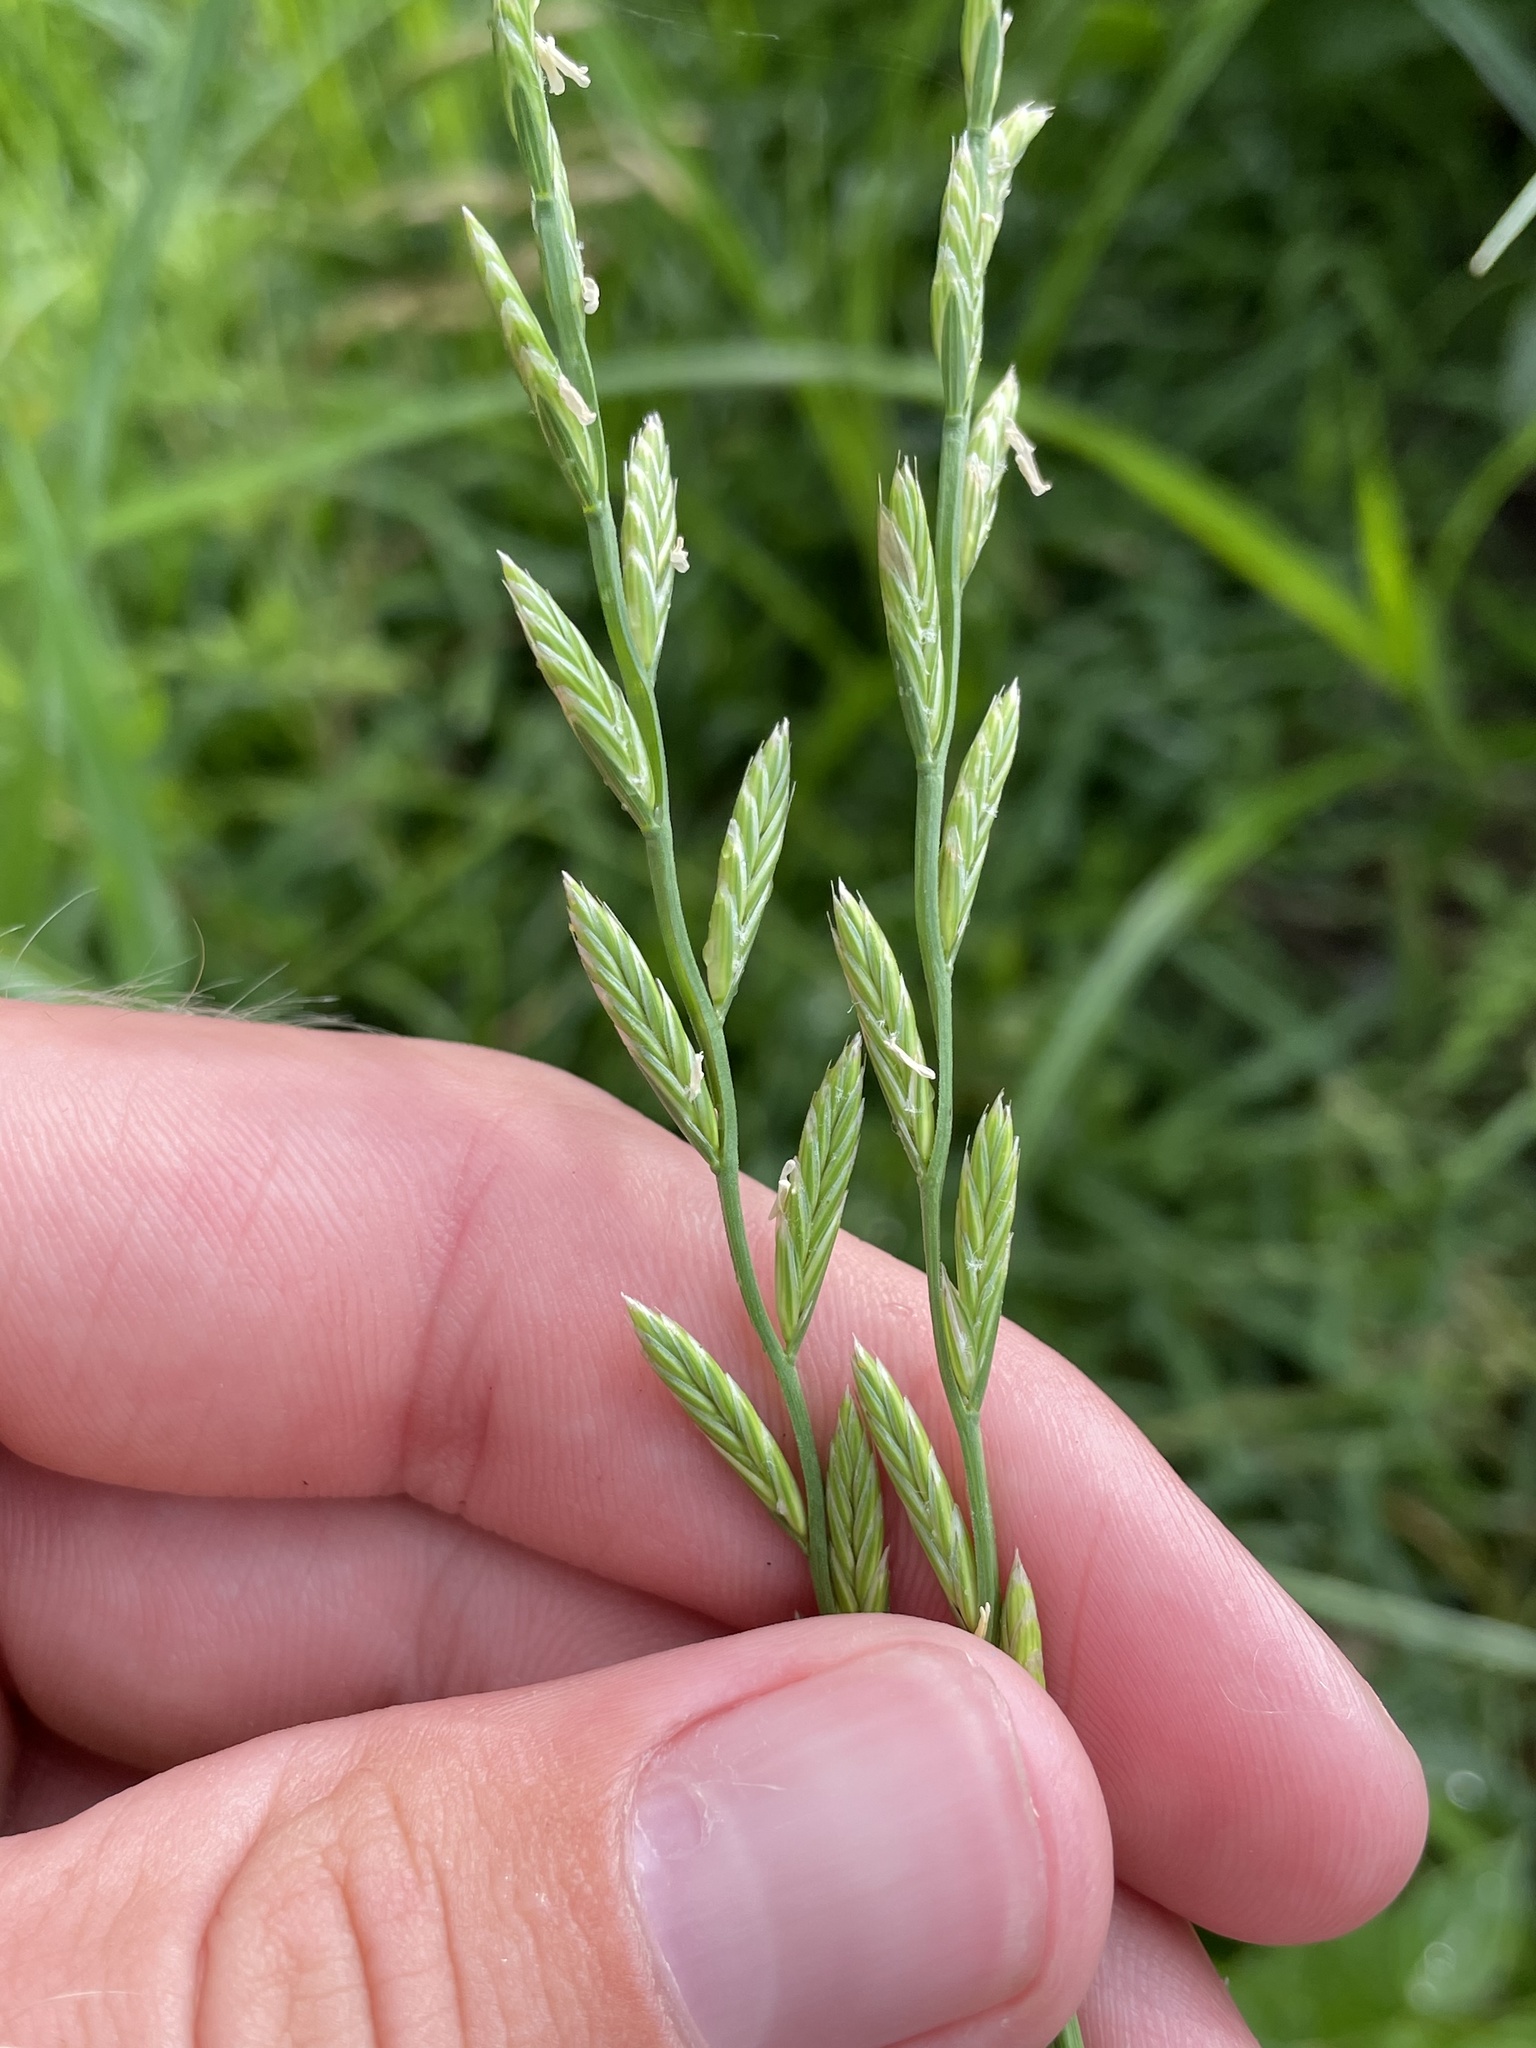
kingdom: Plantae
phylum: Tracheophyta
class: Liliopsida
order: Poales
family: Poaceae
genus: Lolium
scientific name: Lolium perenne
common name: Perennial ryegrass
